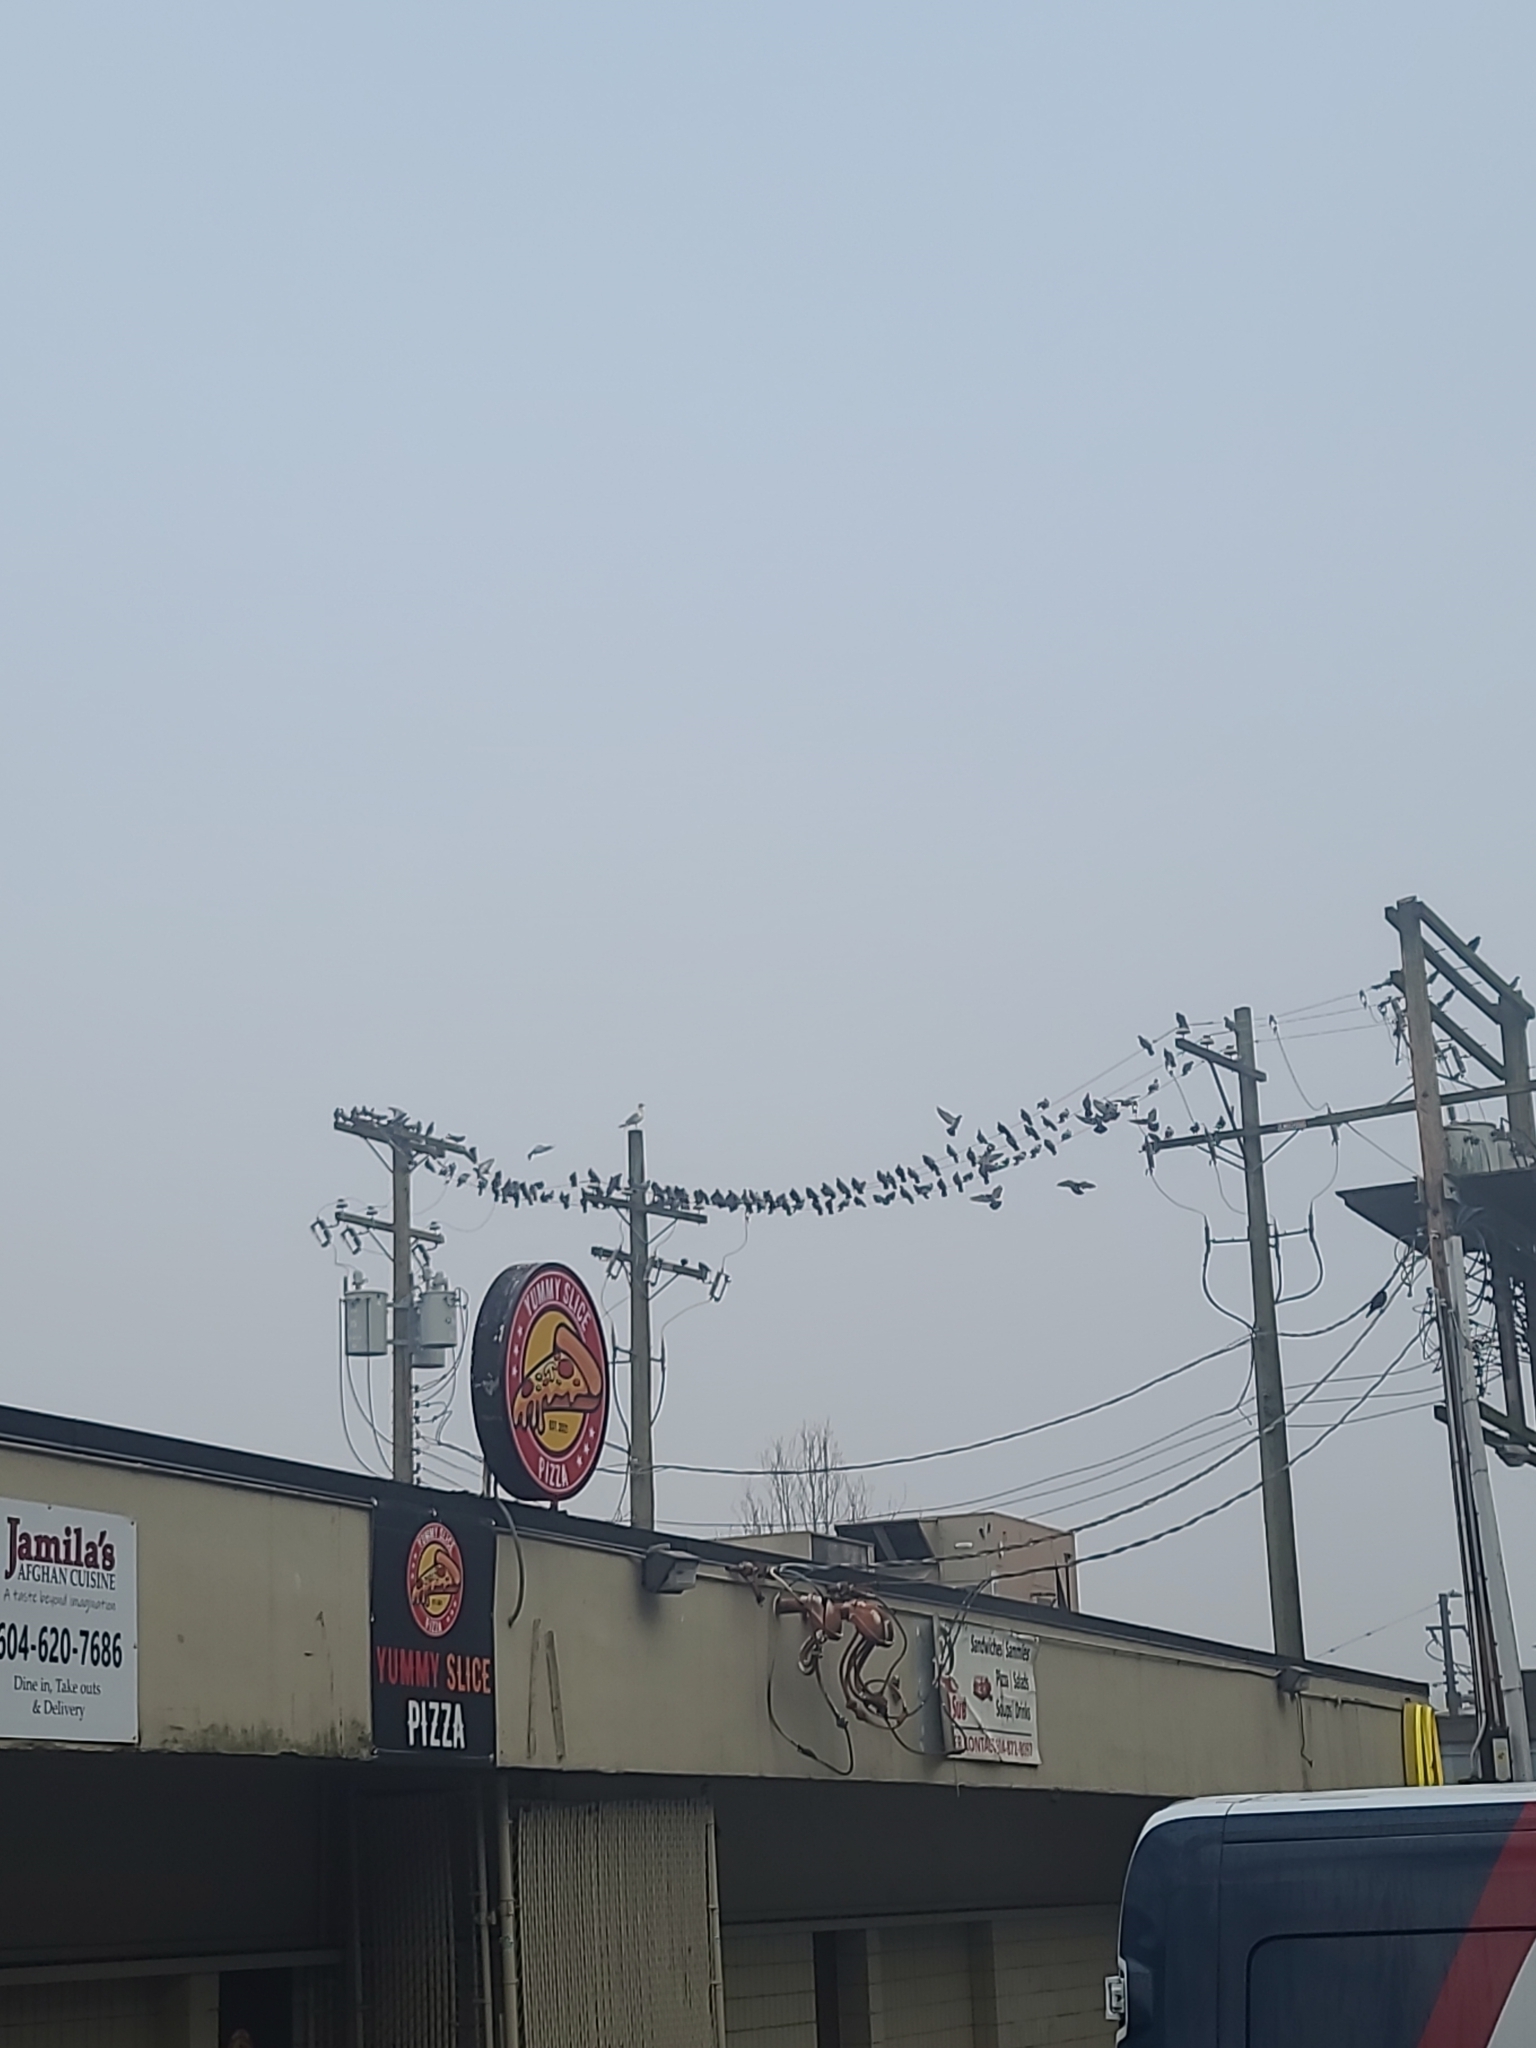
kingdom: Animalia
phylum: Chordata
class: Aves
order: Columbiformes
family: Columbidae
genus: Columba
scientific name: Columba livia
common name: Rock pigeon
